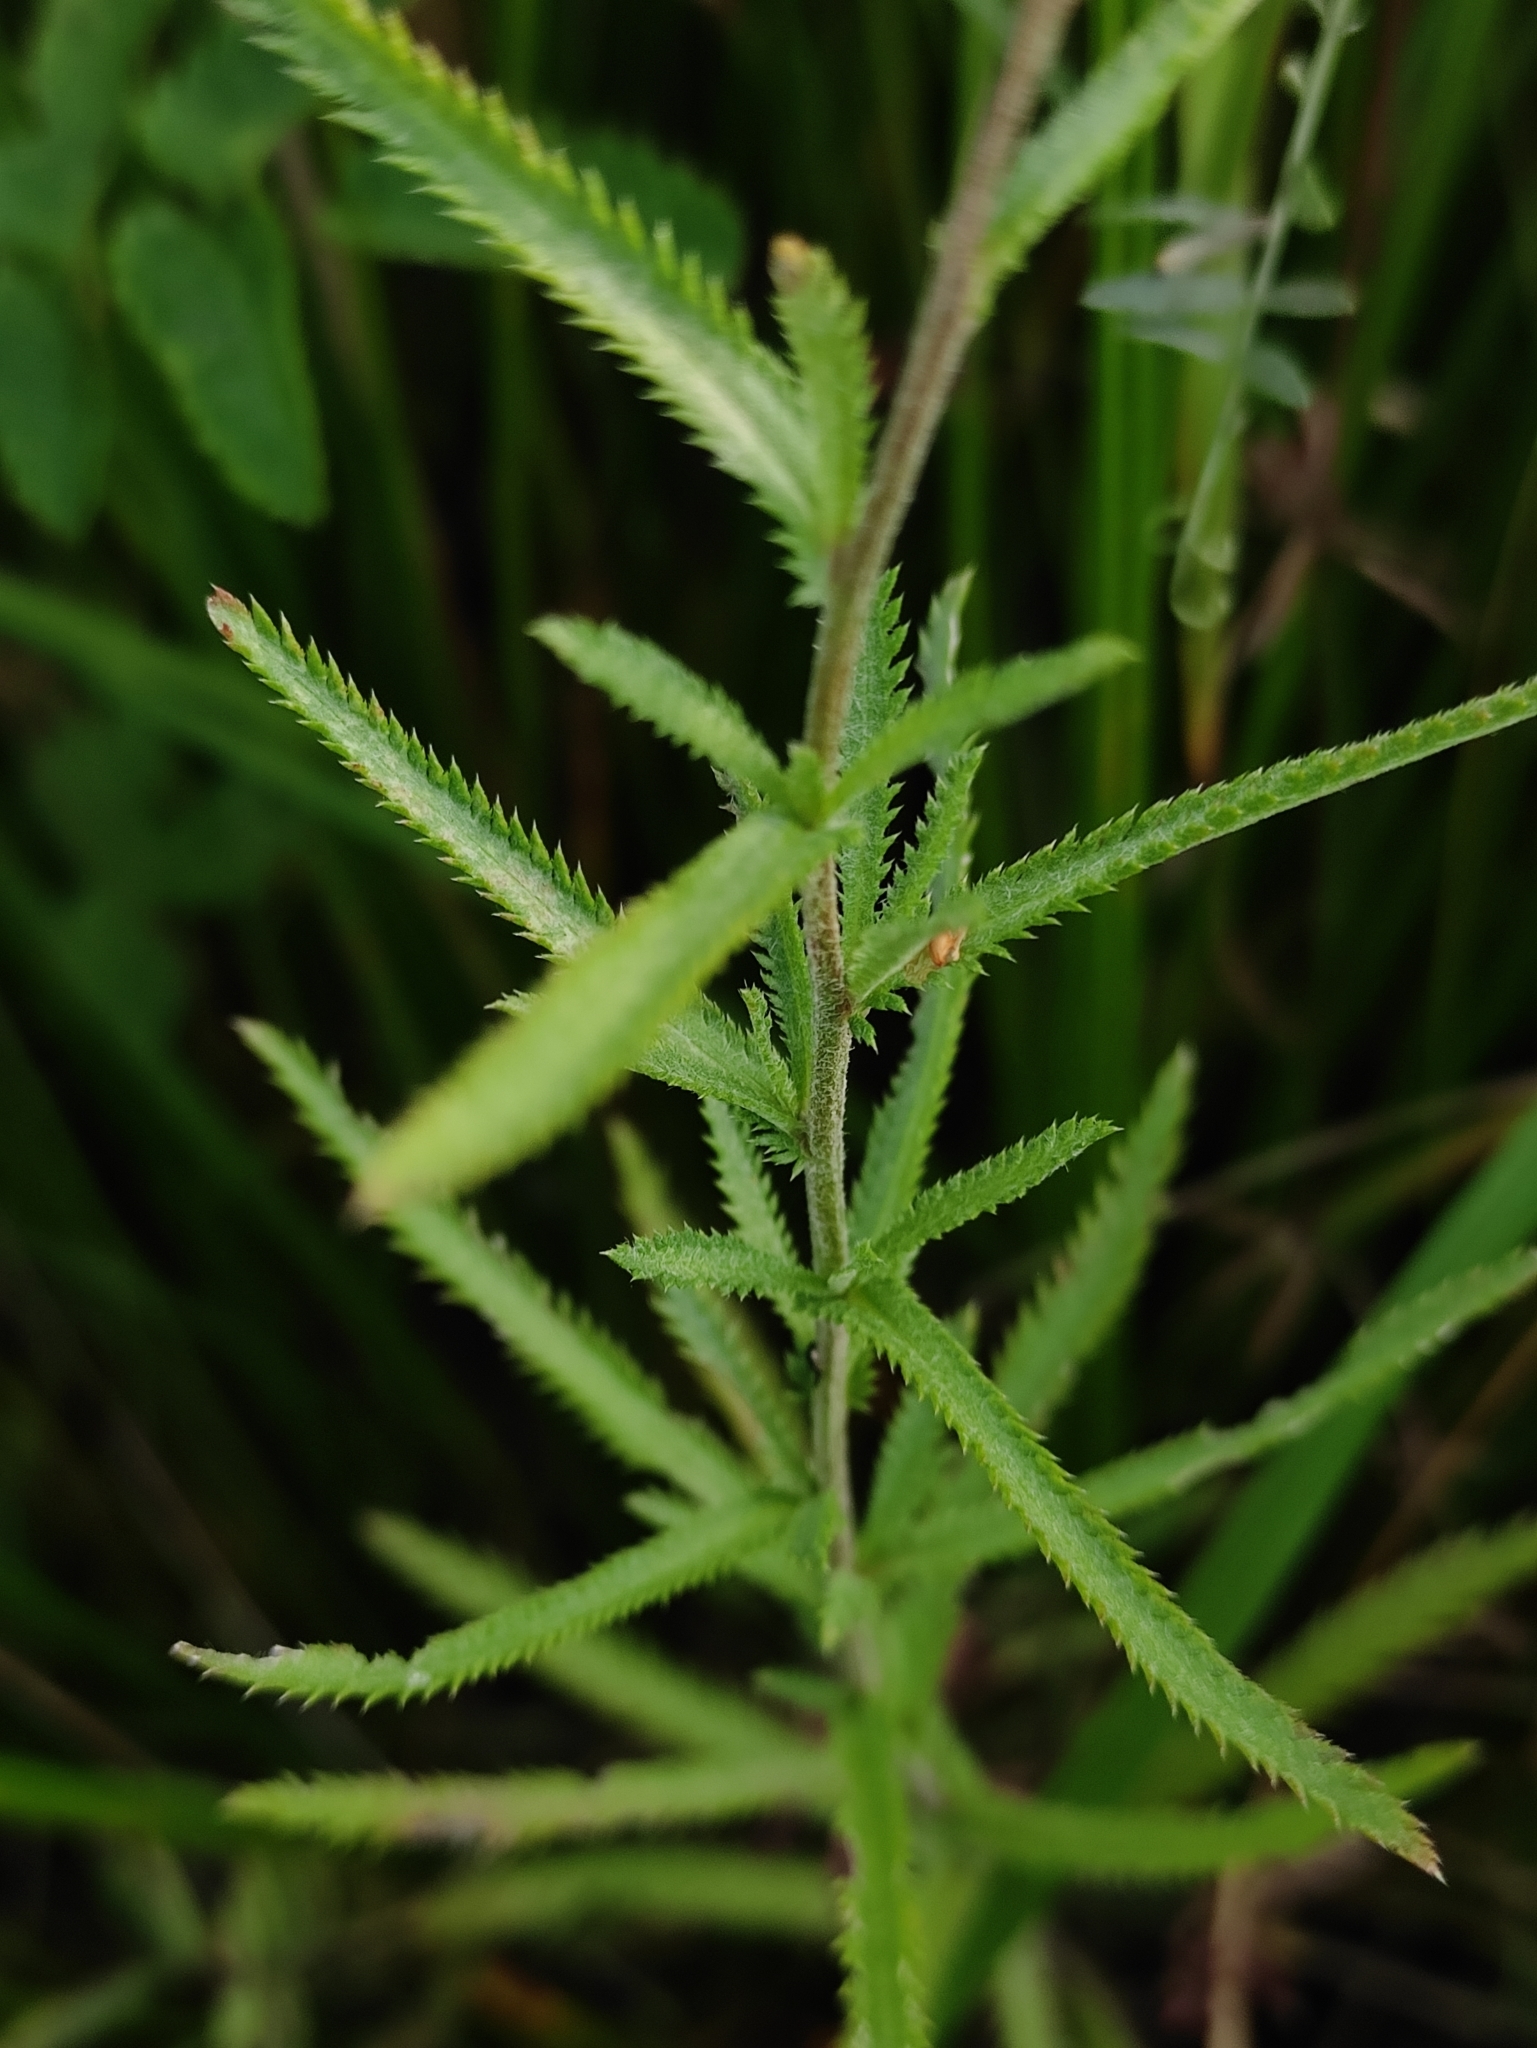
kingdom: Plantae
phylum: Tracheophyta
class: Magnoliopsida
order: Asterales
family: Asteraceae
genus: Achillea
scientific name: Achillea alpina
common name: Siberian yarrow
